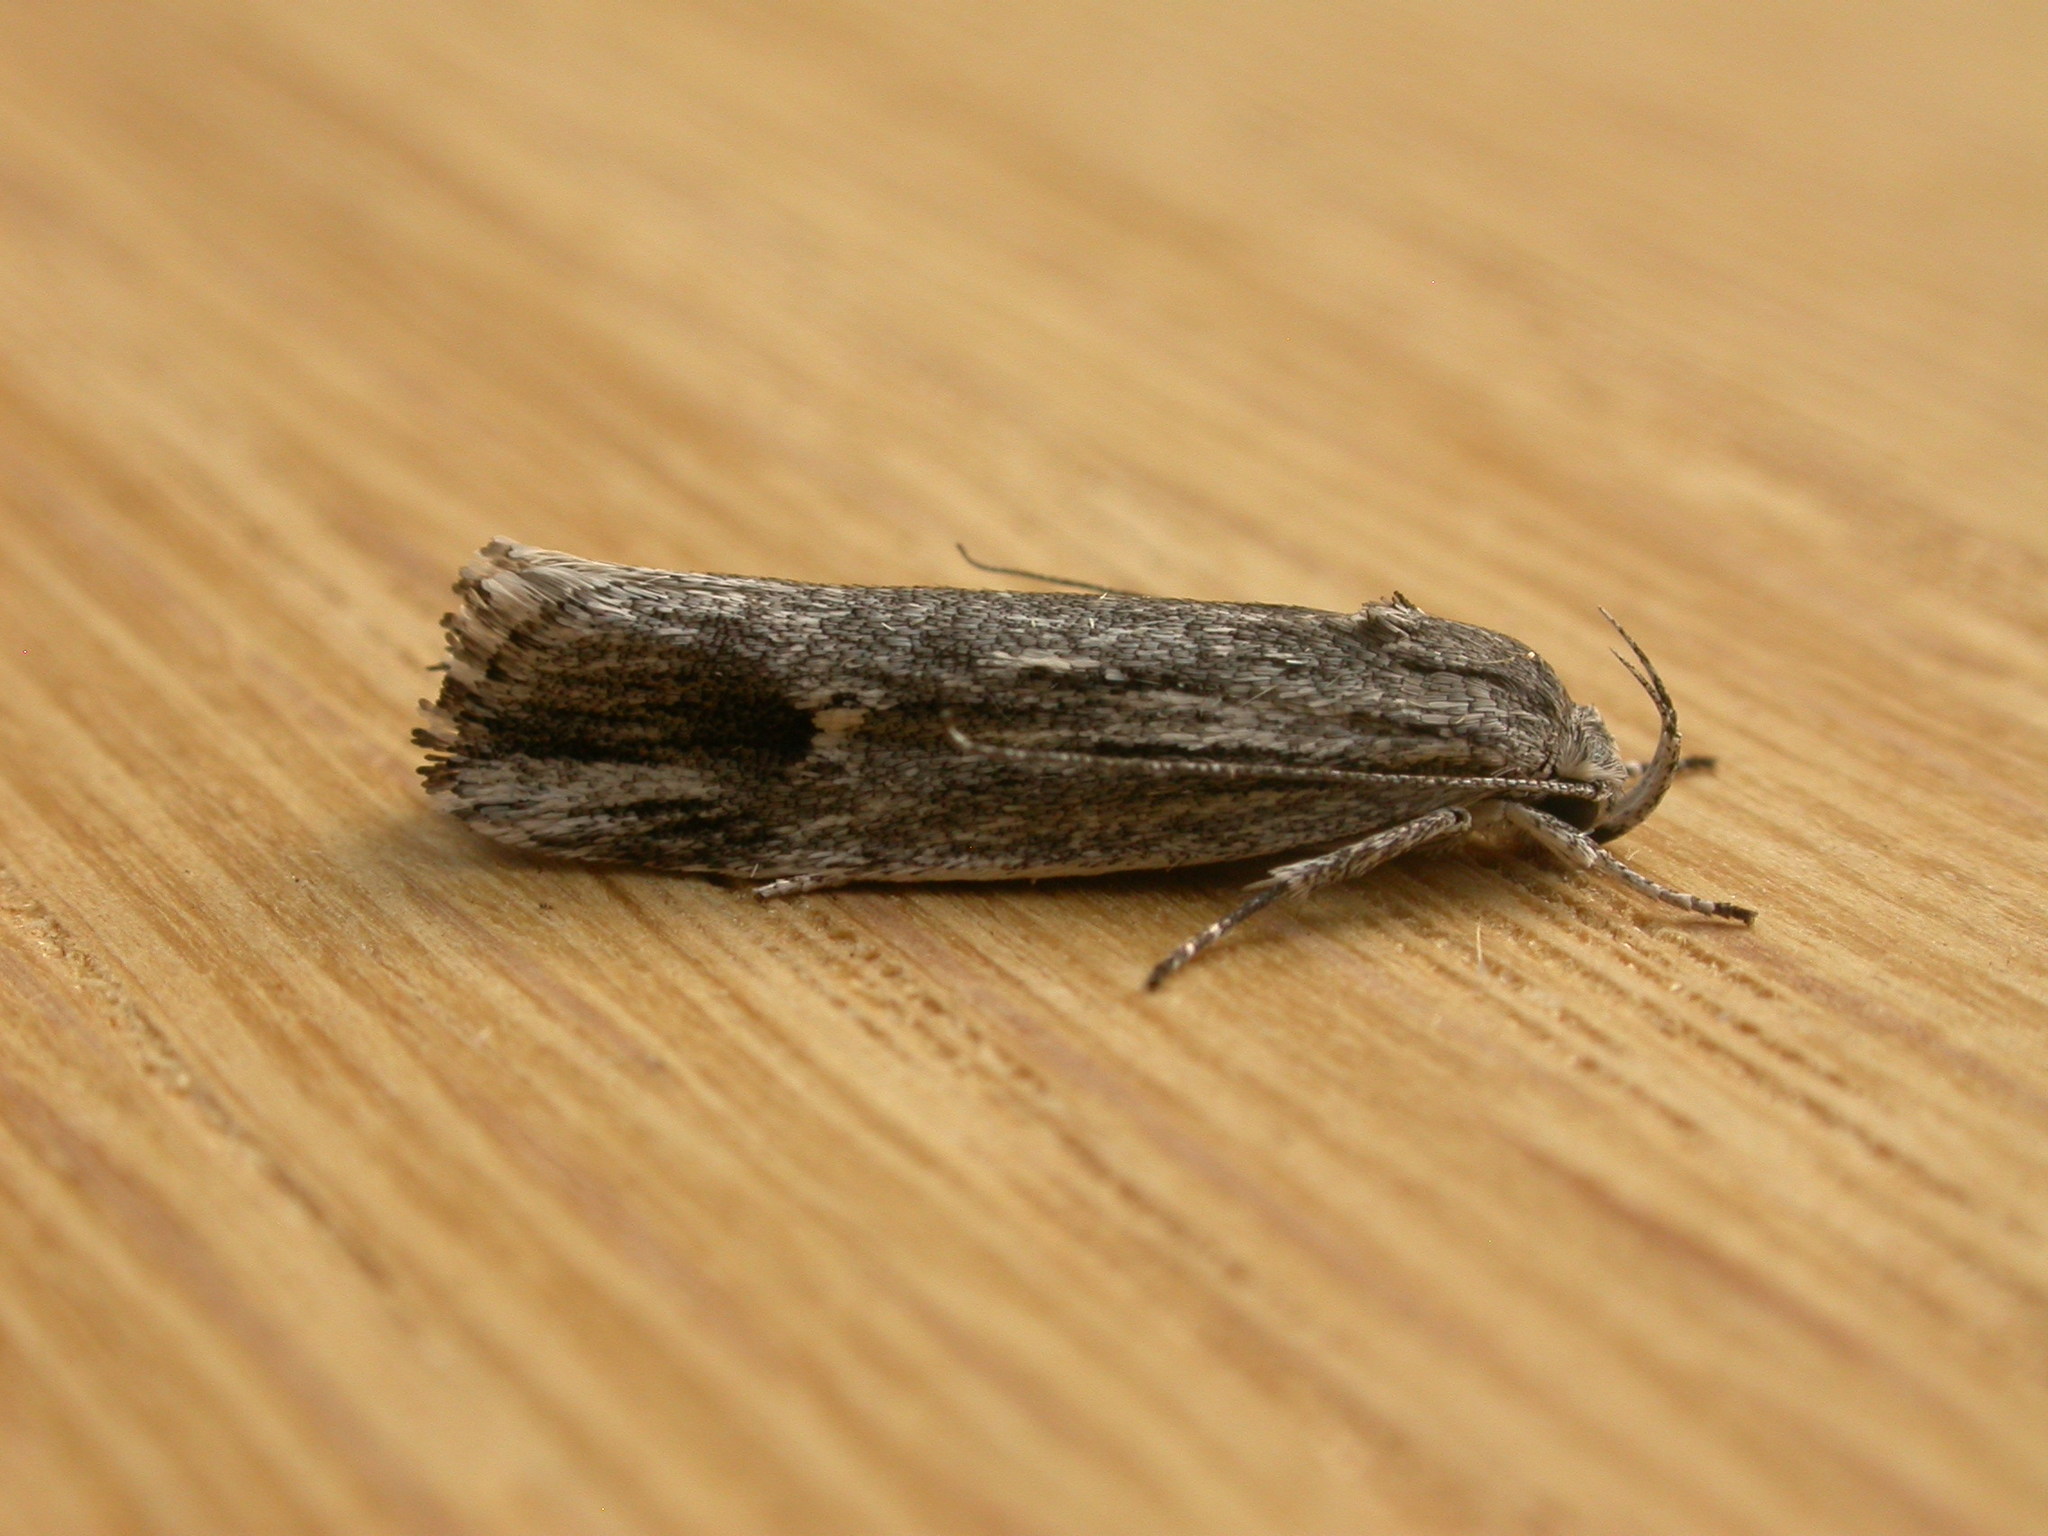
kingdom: Animalia
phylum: Arthropoda
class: Insecta
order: Lepidoptera
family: Xyloryctidae
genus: Lichenaula
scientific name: Lichenaula tuberculata
